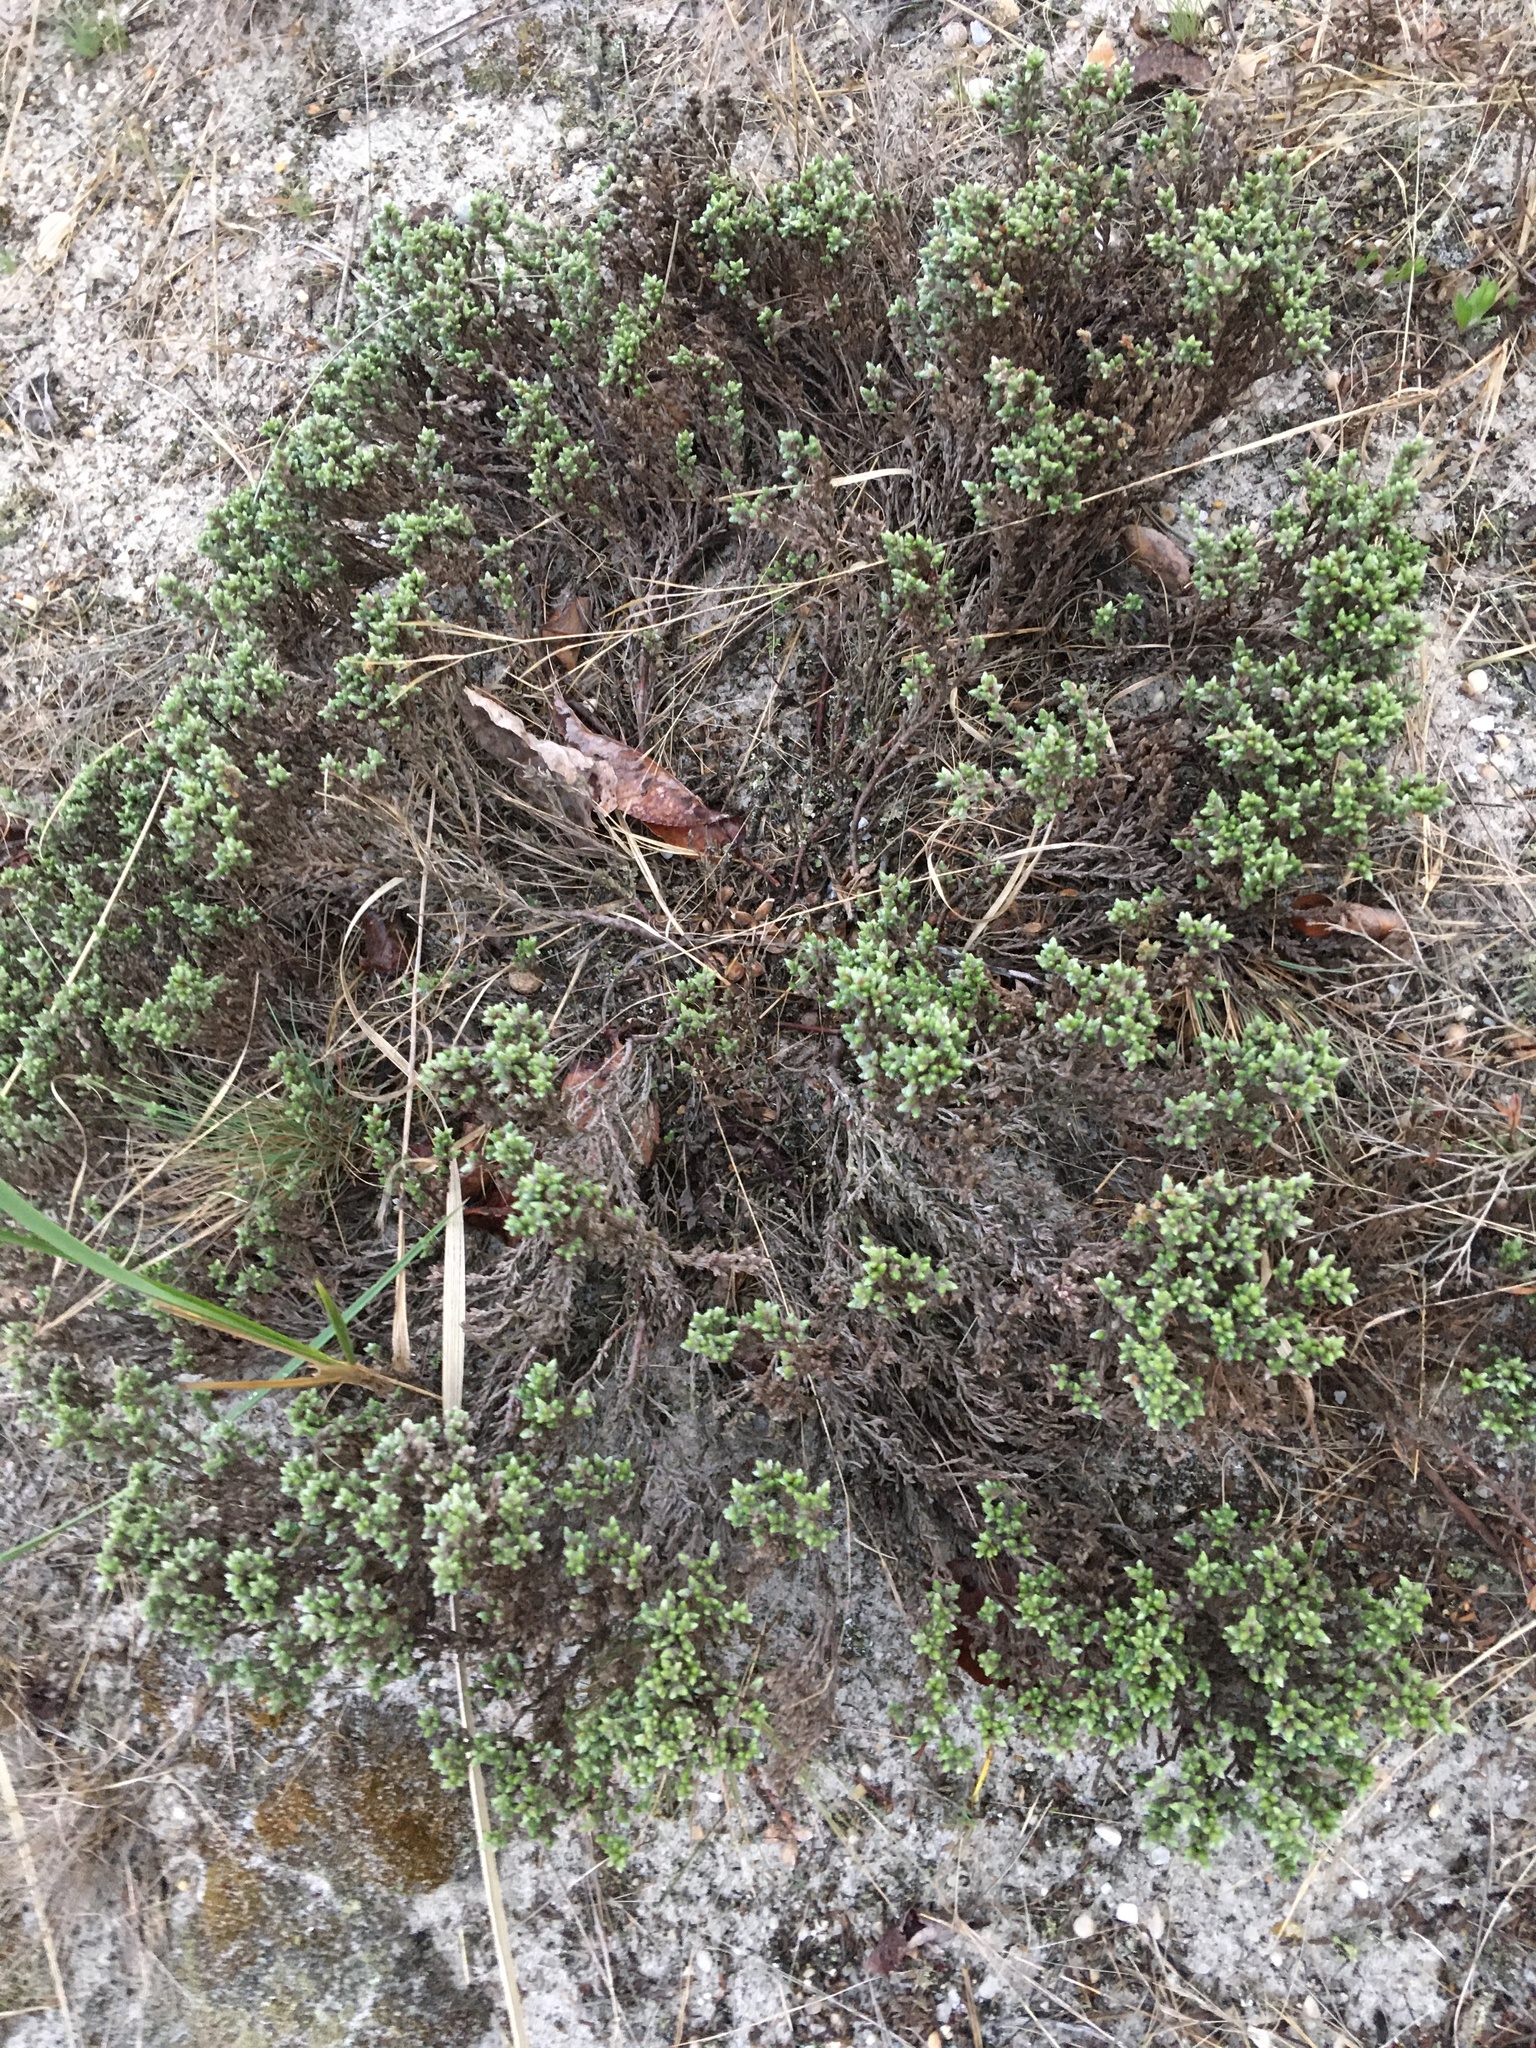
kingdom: Plantae
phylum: Tracheophyta
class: Magnoliopsida
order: Malvales
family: Cistaceae
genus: Hudsonia
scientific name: Hudsonia tomentosa
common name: Beach-heath
